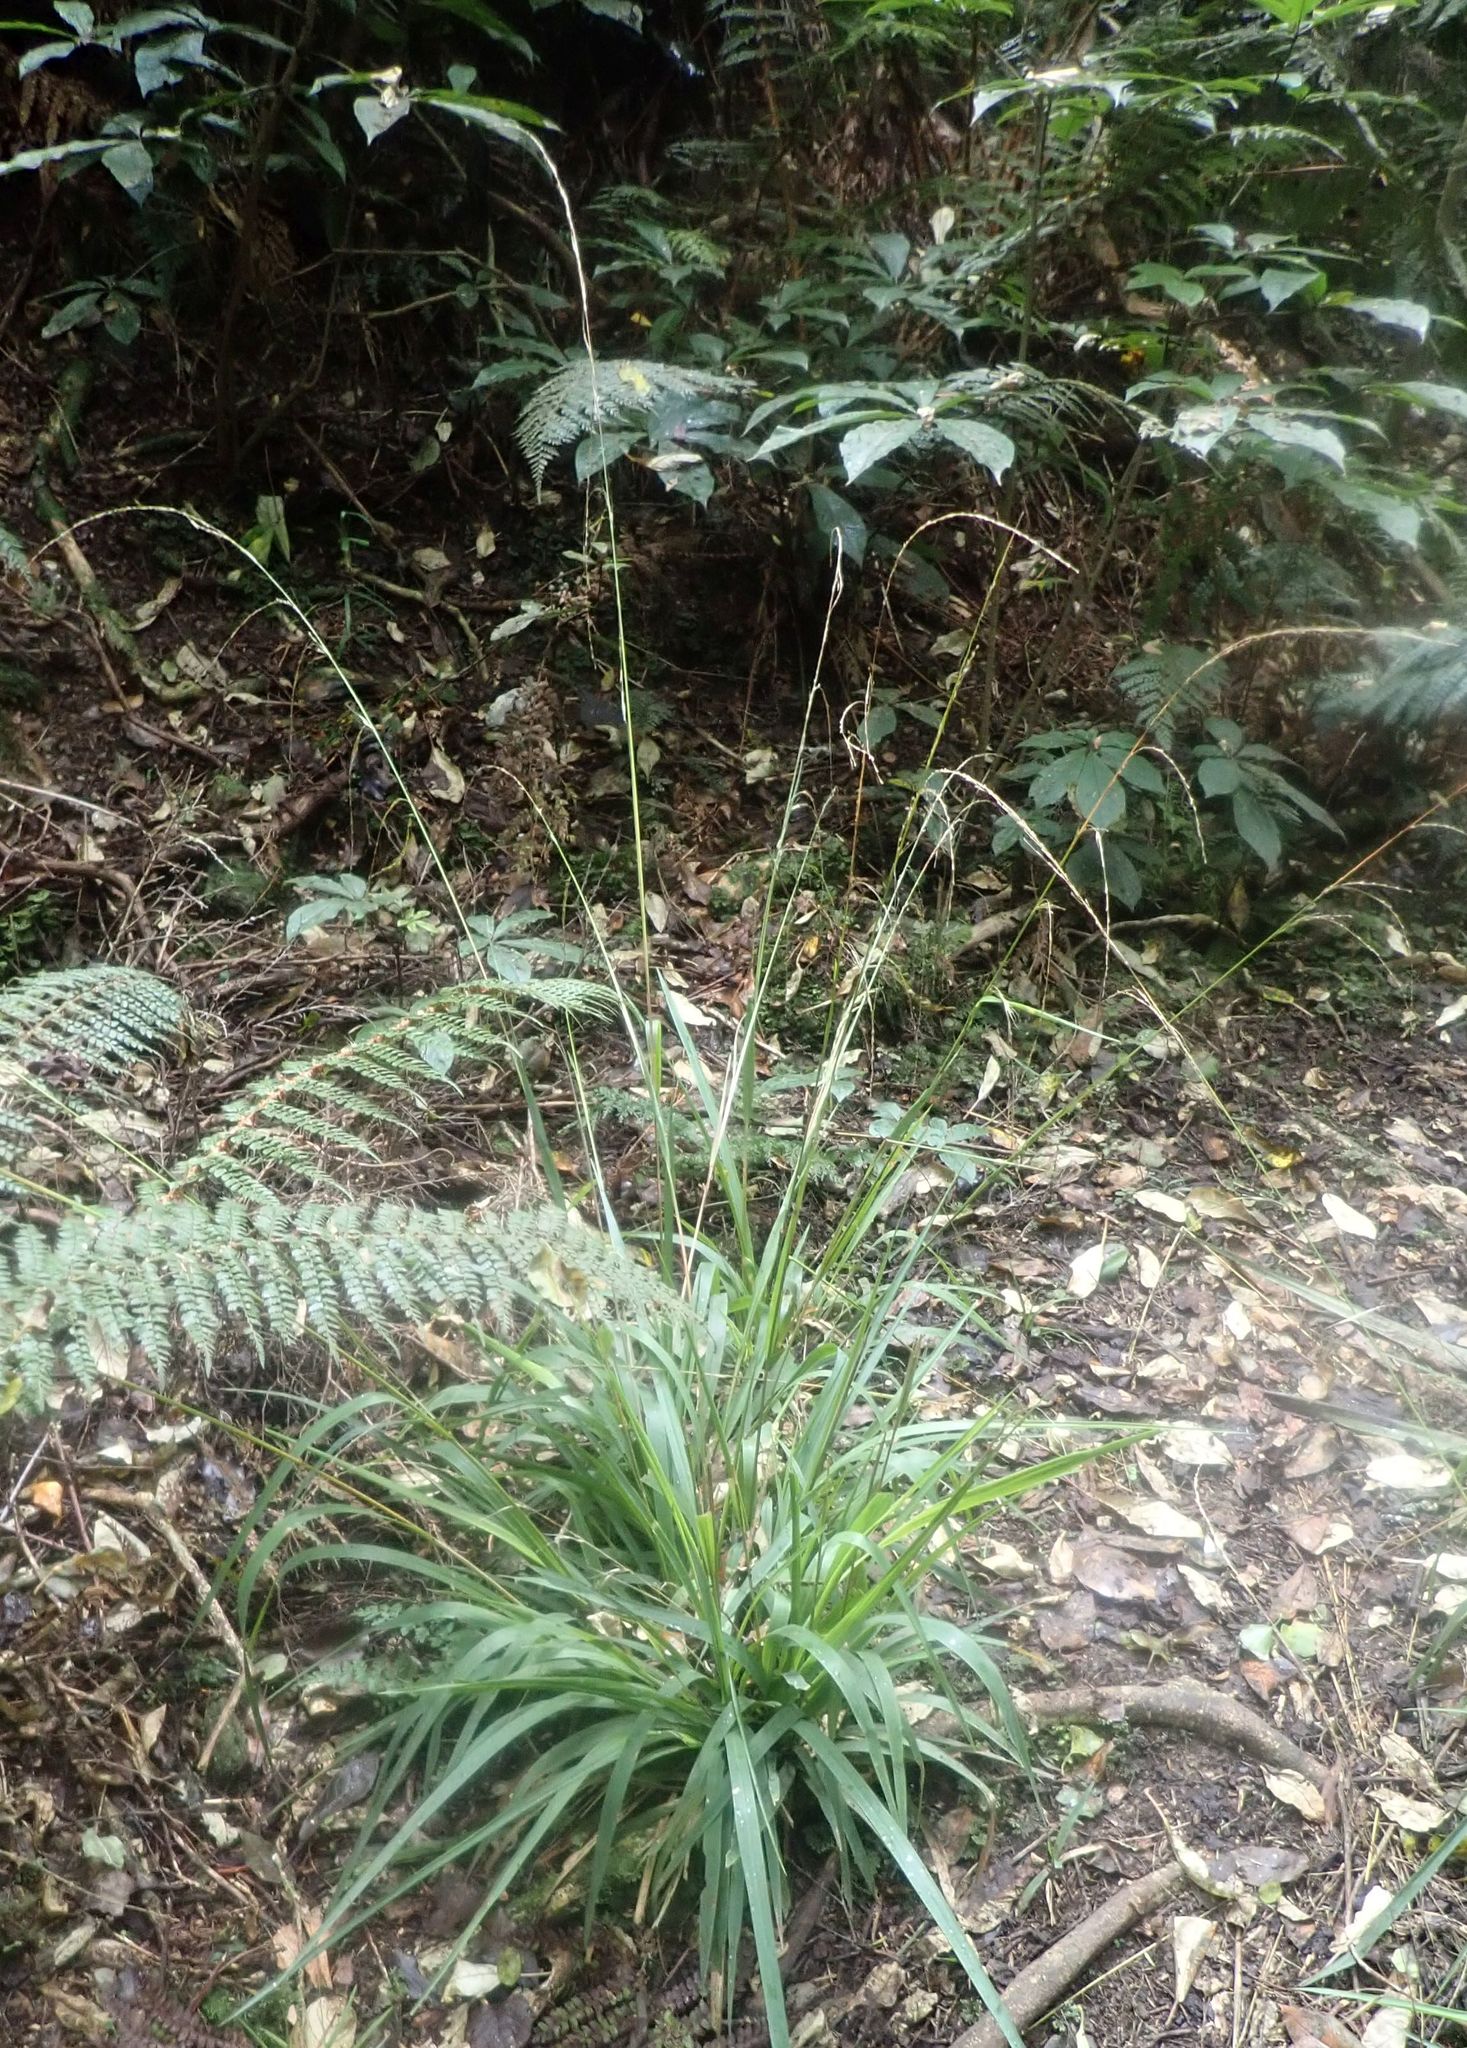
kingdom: Plantae
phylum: Tracheophyta
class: Liliopsida
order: Poales
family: Poaceae
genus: Ehrharta
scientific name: Ehrharta diplax
